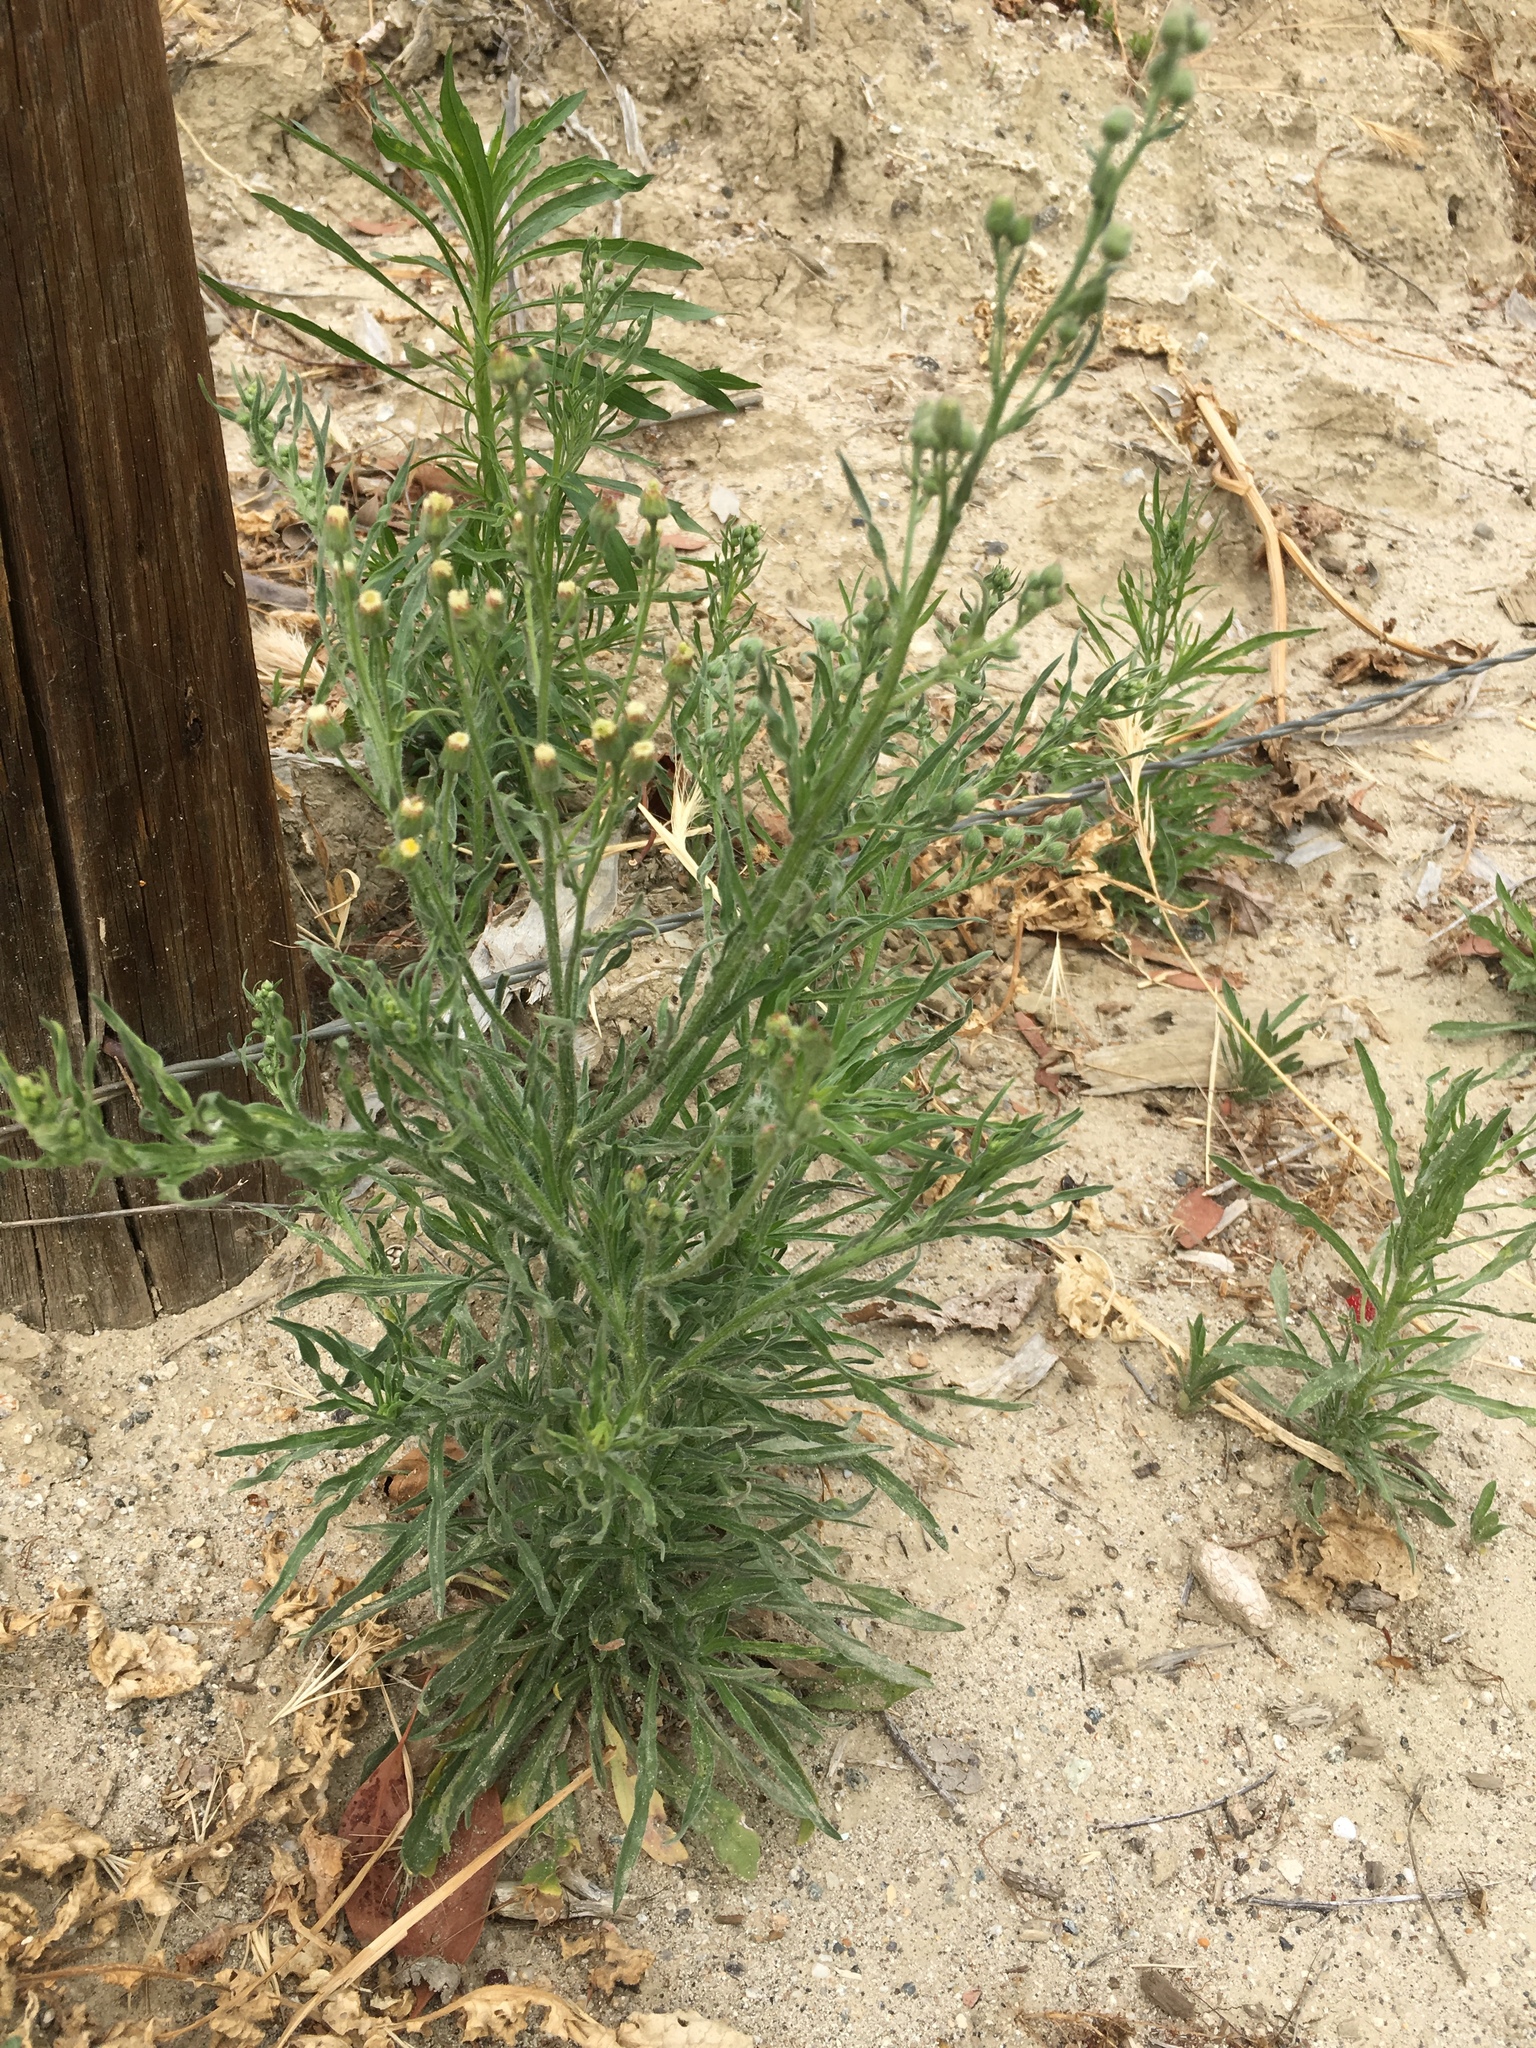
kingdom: Plantae
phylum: Tracheophyta
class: Magnoliopsida
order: Asterales
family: Asteraceae
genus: Erigeron
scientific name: Erigeron bonariensis
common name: Argentine fleabane
